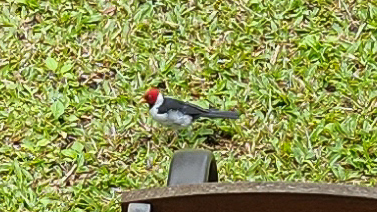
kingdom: Animalia
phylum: Chordata
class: Aves
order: Passeriformes
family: Thraupidae
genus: Paroaria
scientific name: Paroaria capitata
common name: Yellow-billed cardinal
